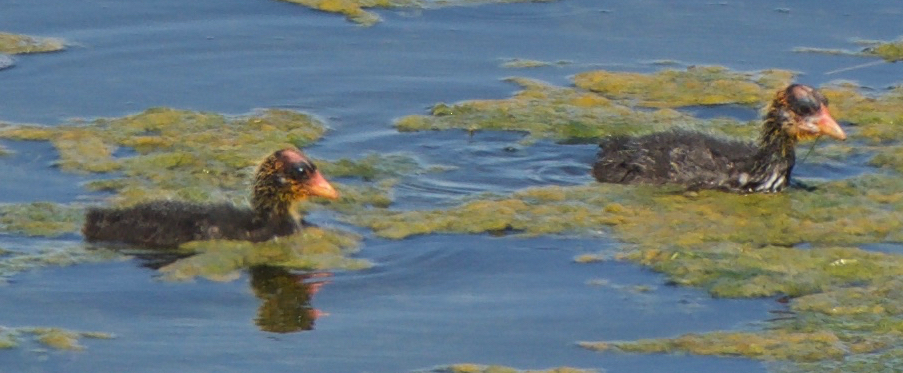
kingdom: Animalia
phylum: Chordata
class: Aves
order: Gruiformes
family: Rallidae
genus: Fulica
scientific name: Fulica americana
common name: American coot
